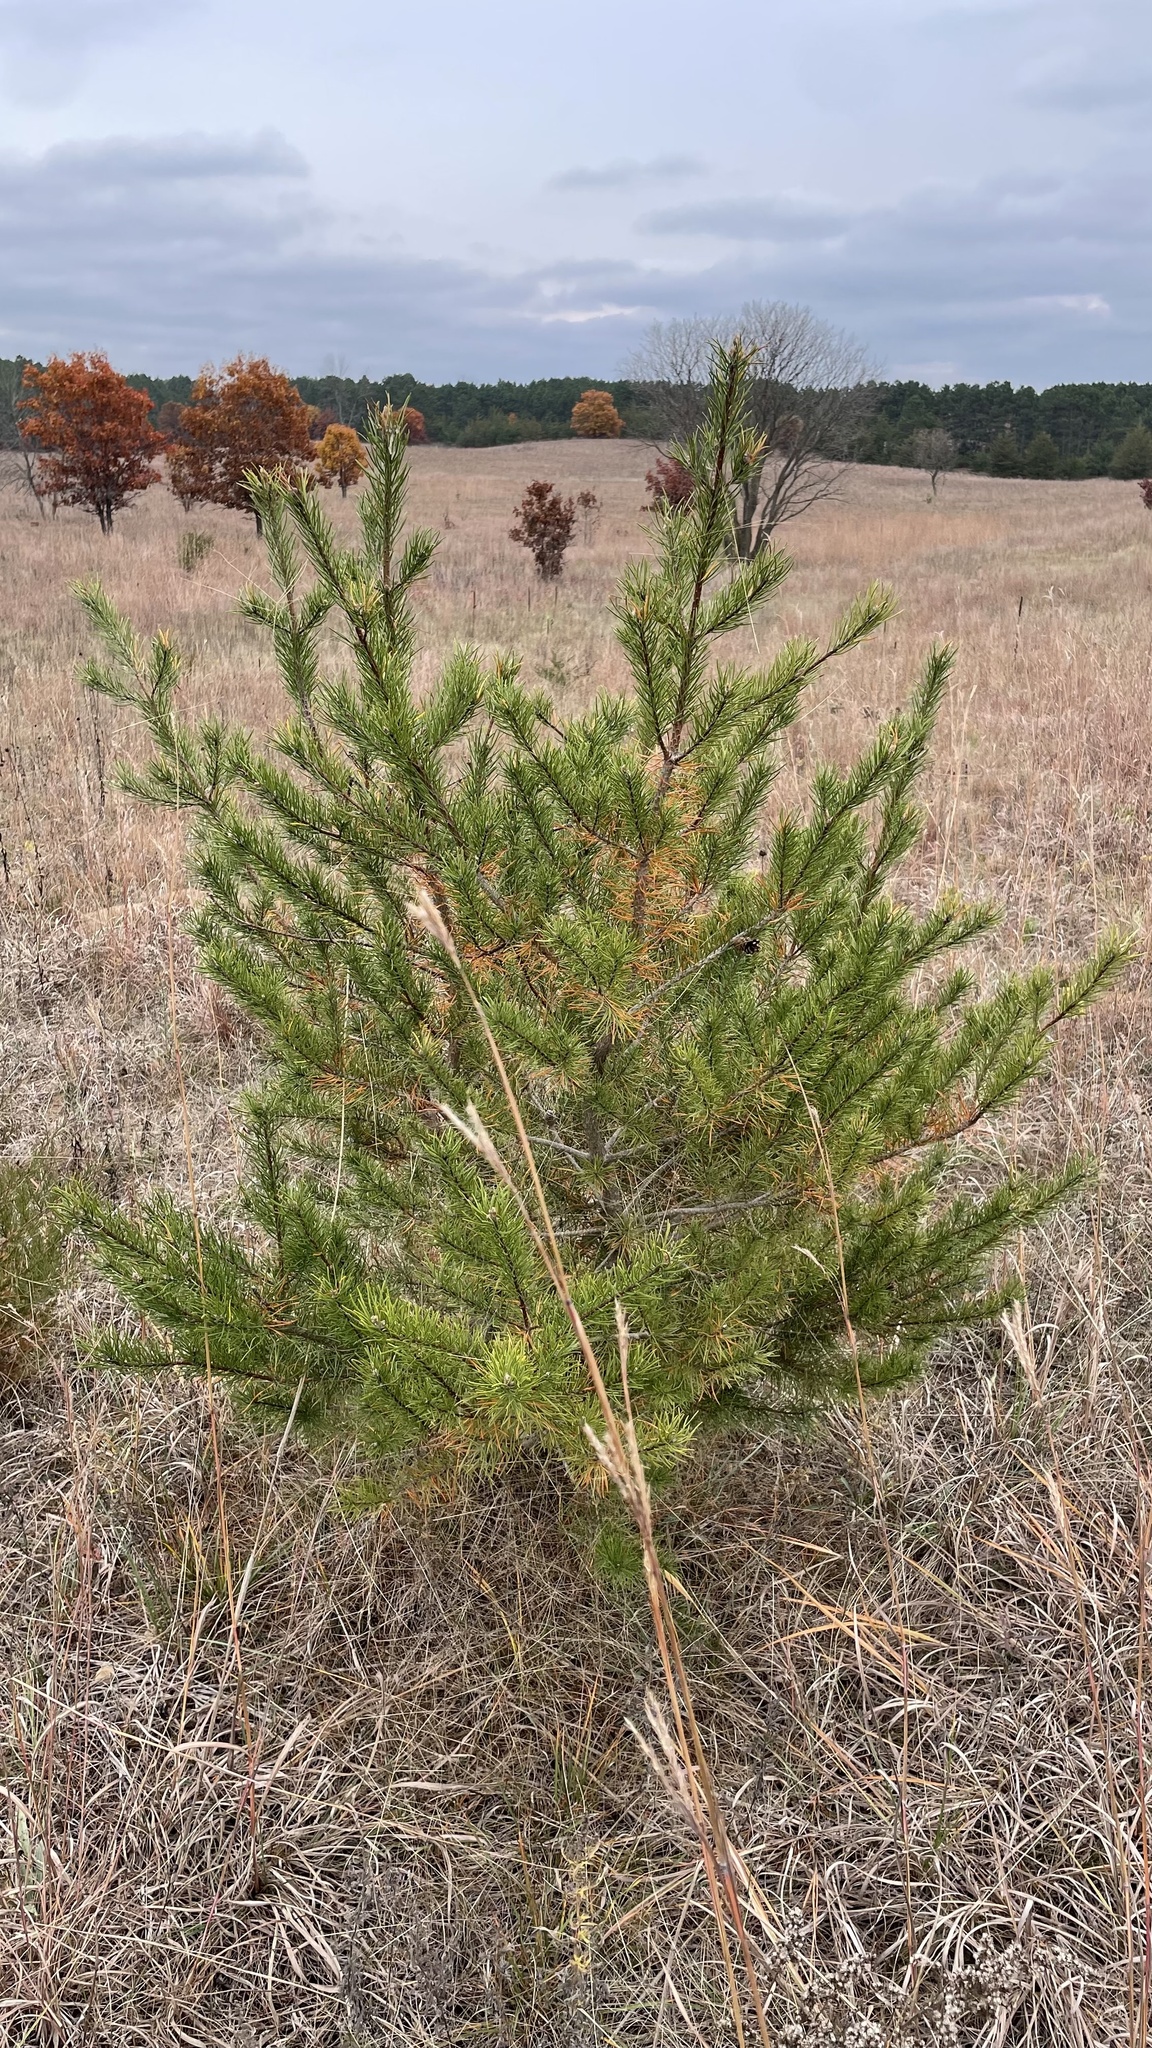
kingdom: Plantae
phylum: Tracheophyta
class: Pinopsida
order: Pinales
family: Pinaceae
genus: Pinus
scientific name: Pinus banksiana
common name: Jack pine
